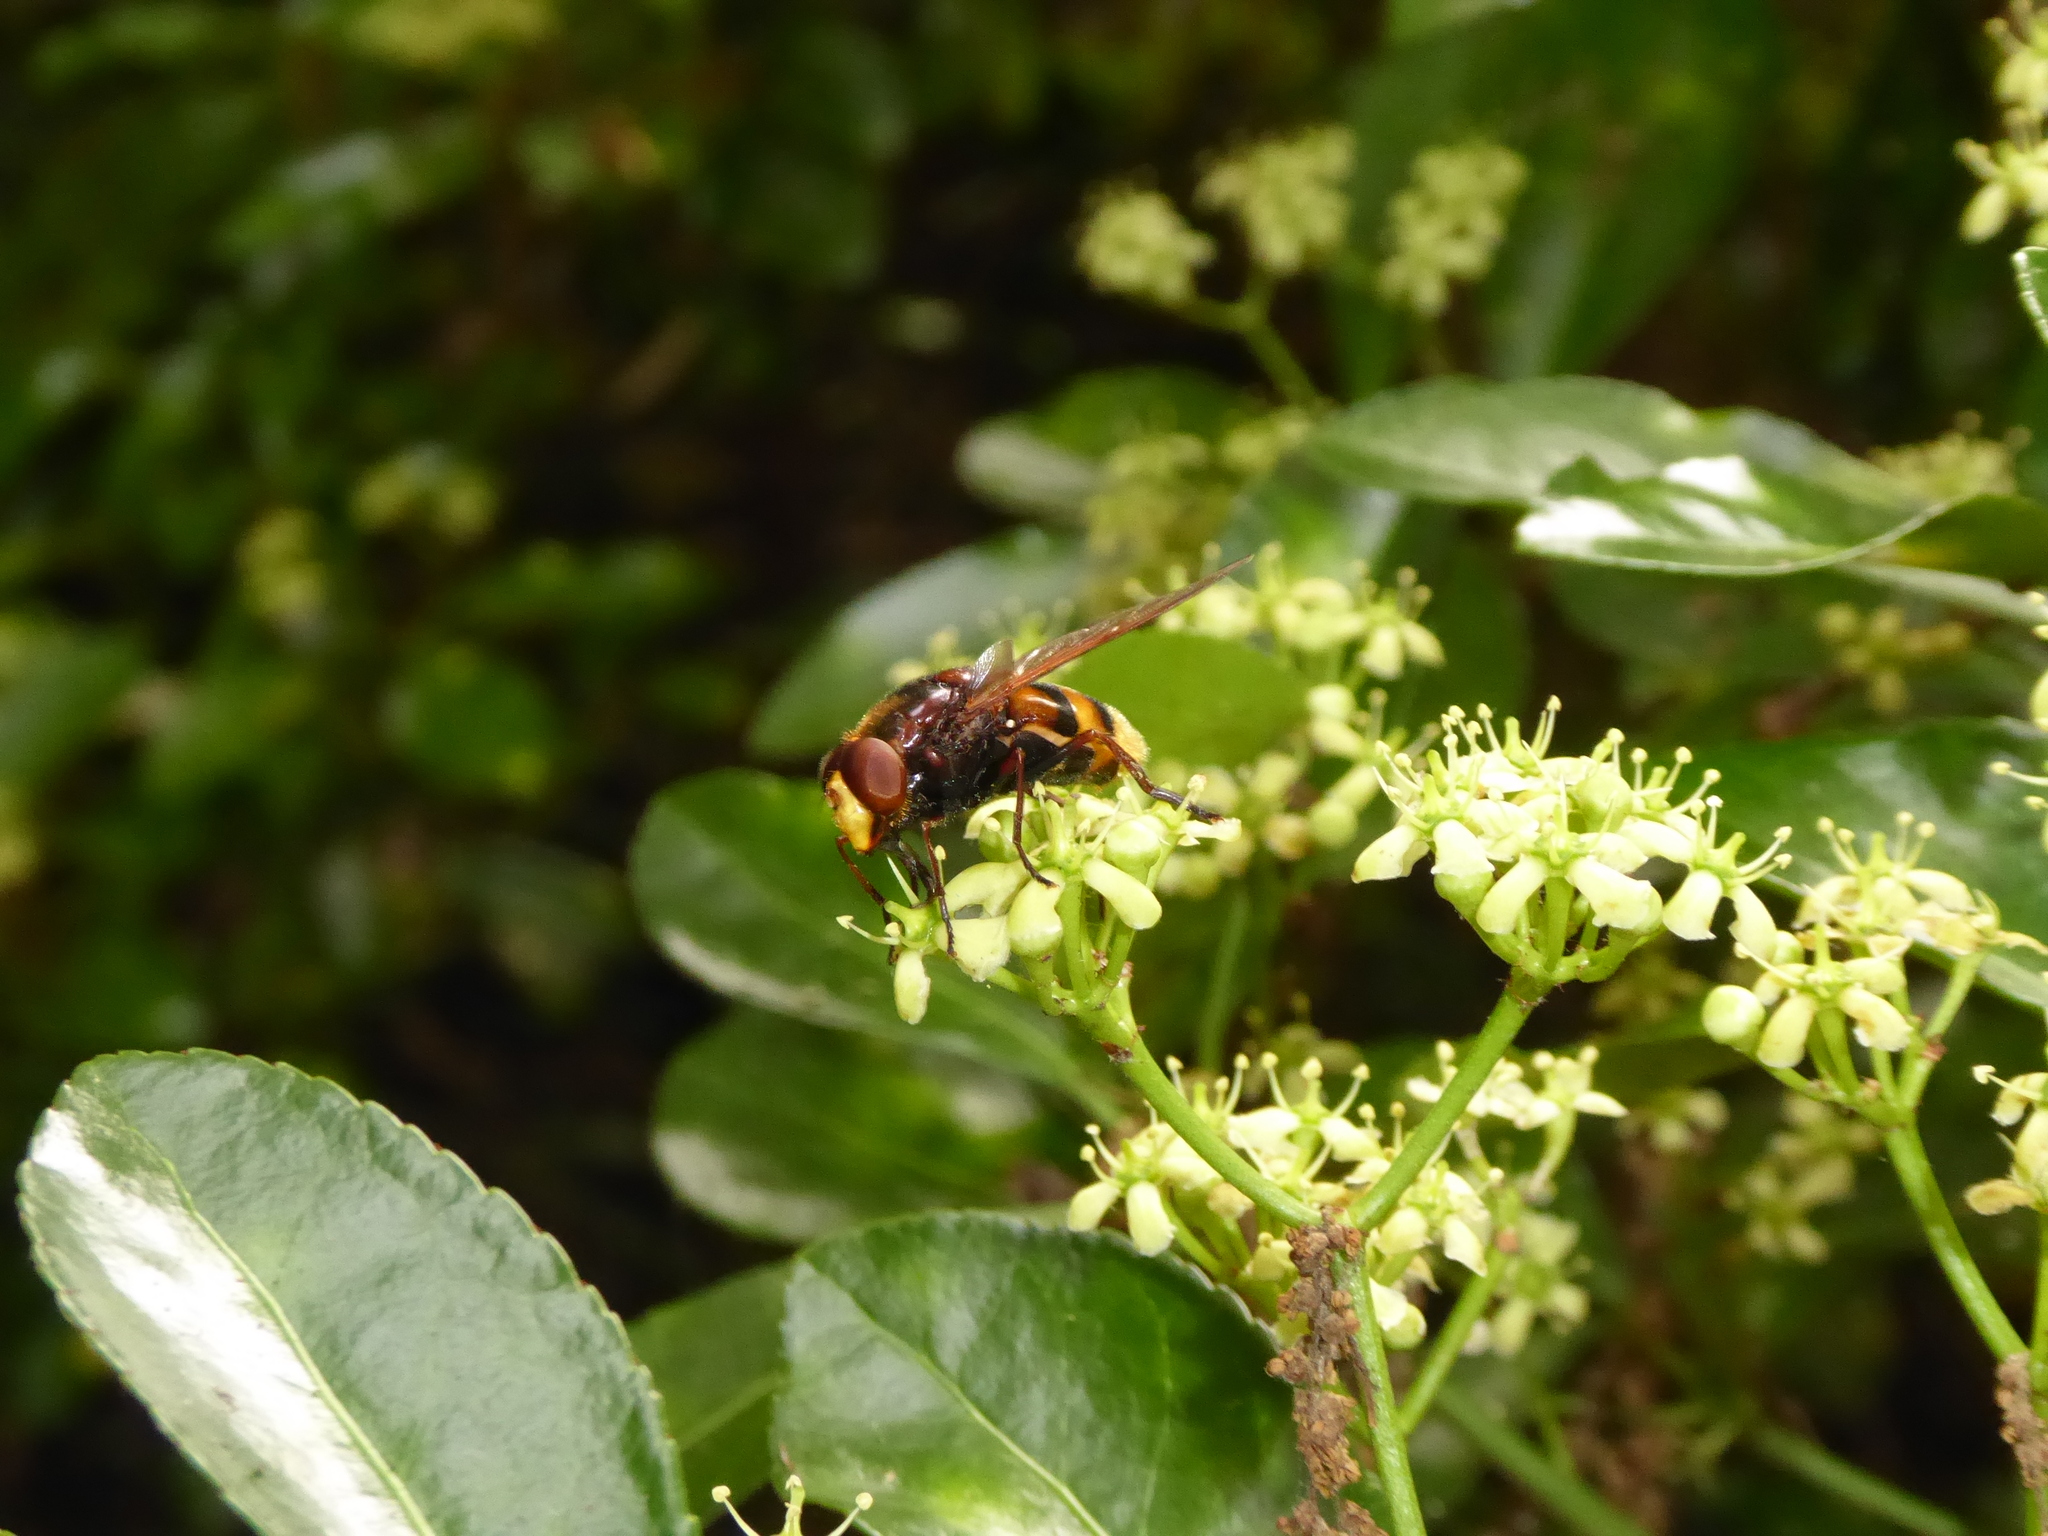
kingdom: Animalia
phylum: Arthropoda
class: Insecta
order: Diptera
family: Syrphidae
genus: Volucella
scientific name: Volucella zonaria
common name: Hornet hoverfly
